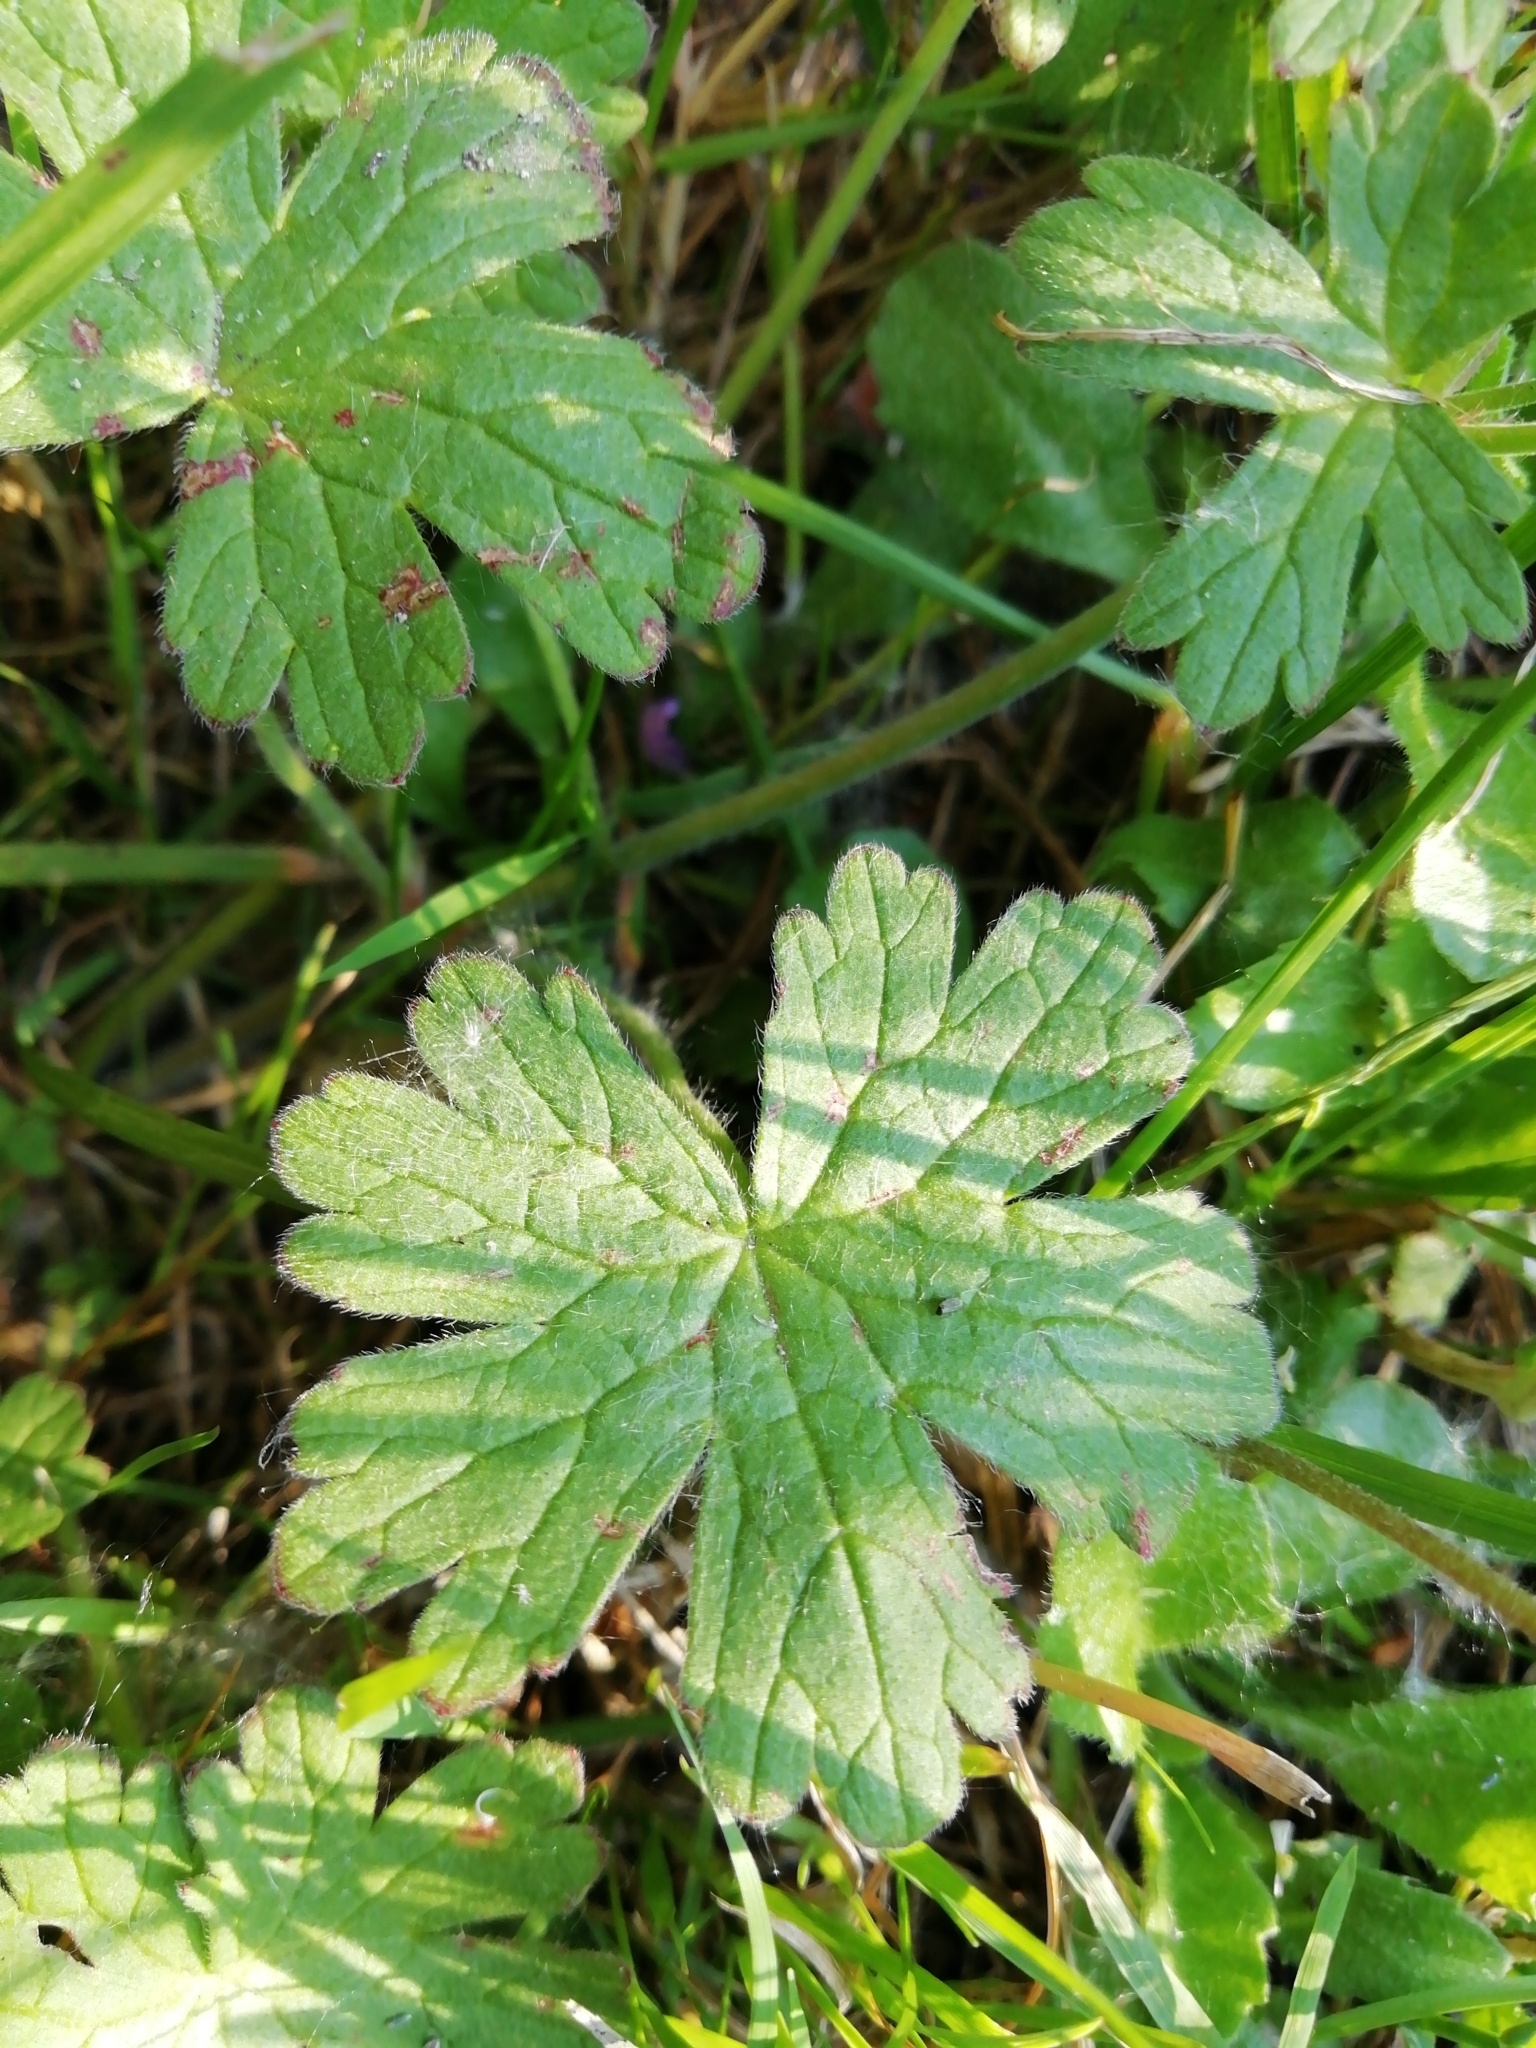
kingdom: Plantae
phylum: Tracheophyta
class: Magnoliopsida
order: Geraniales
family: Geraniaceae
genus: Geranium
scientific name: Geranium pyrenaicum
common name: Hedgerow crane's-bill
